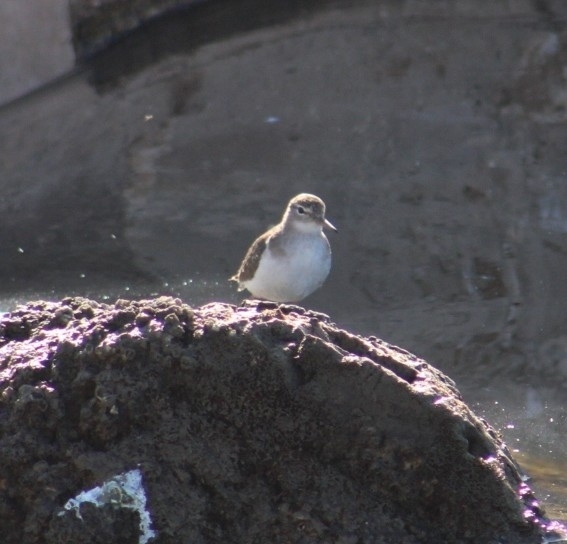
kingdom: Animalia
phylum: Chordata
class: Aves
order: Charadriiformes
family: Scolopacidae
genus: Actitis
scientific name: Actitis macularius
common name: Spotted sandpiper
